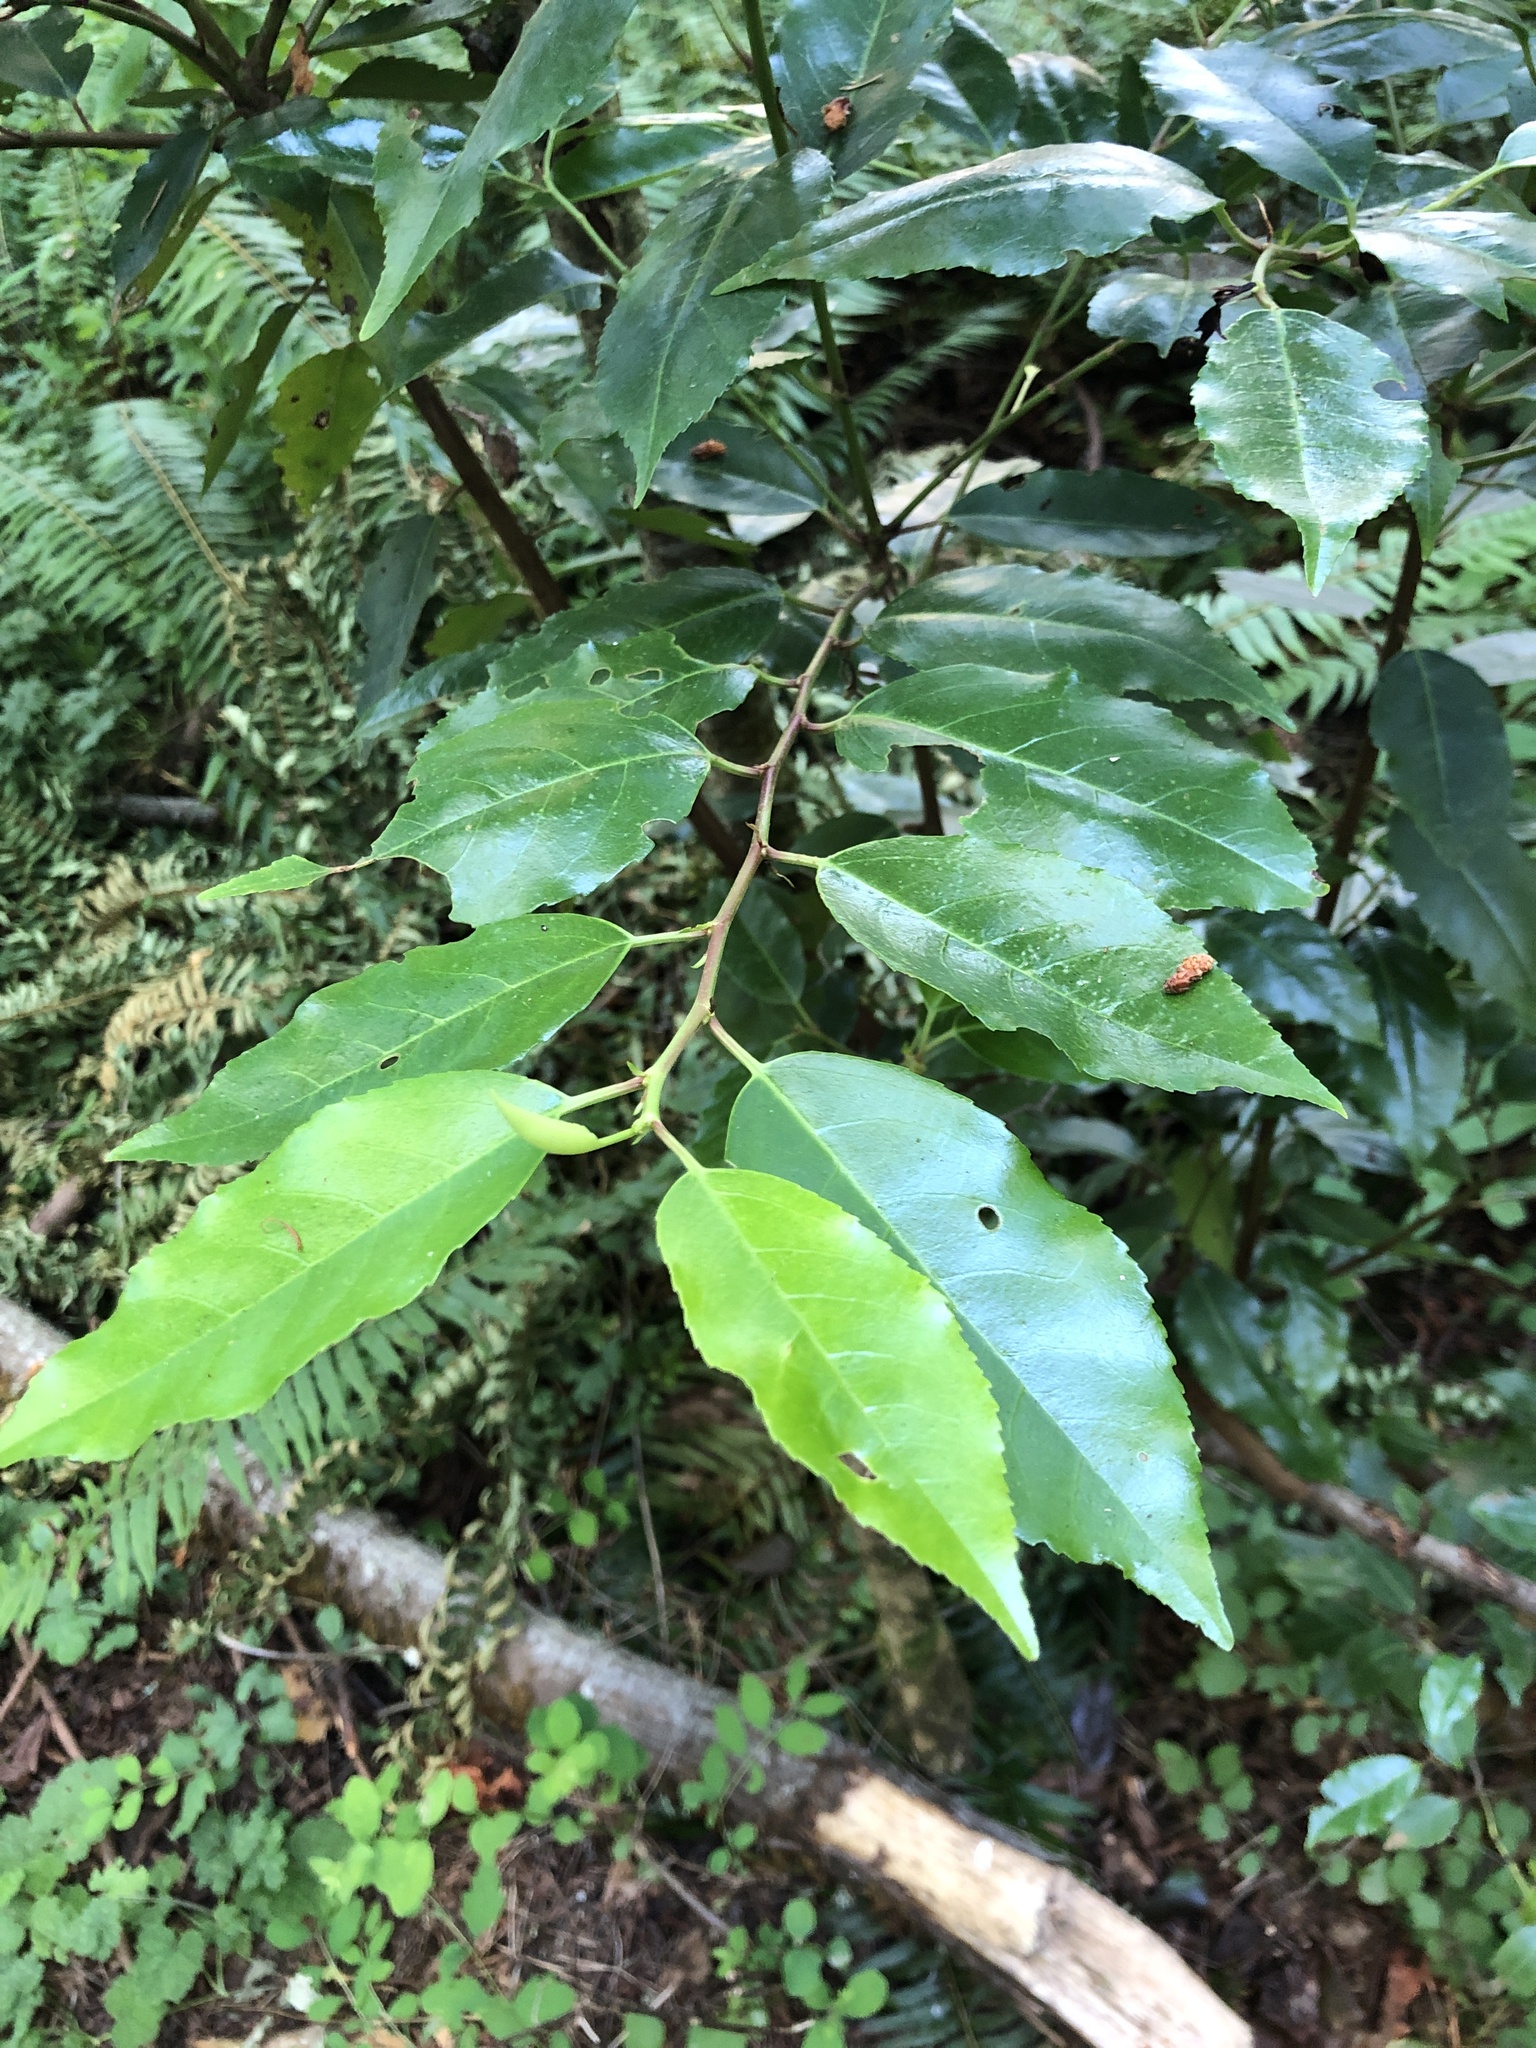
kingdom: Plantae
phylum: Tracheophyta
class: Magnoliopsida
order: Rosales
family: Rosaceae
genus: Prunus
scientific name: Prunus lusitanica
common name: Portugal laurel
